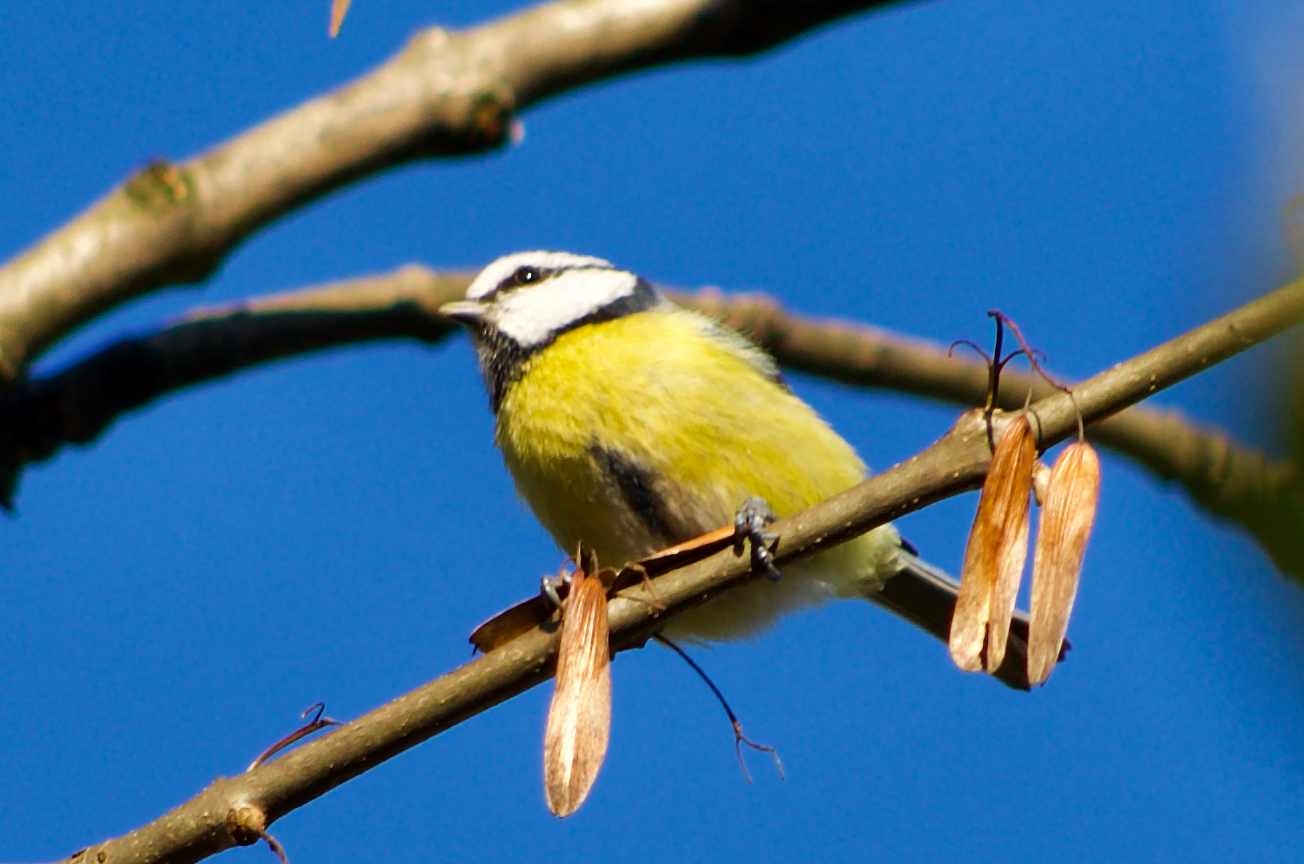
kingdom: Animalia
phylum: Chordata
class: Aves
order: Passeriformes
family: Paridae
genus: Cyanistes
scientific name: Cyanistes caeruleus
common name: Eurasian blue tit
